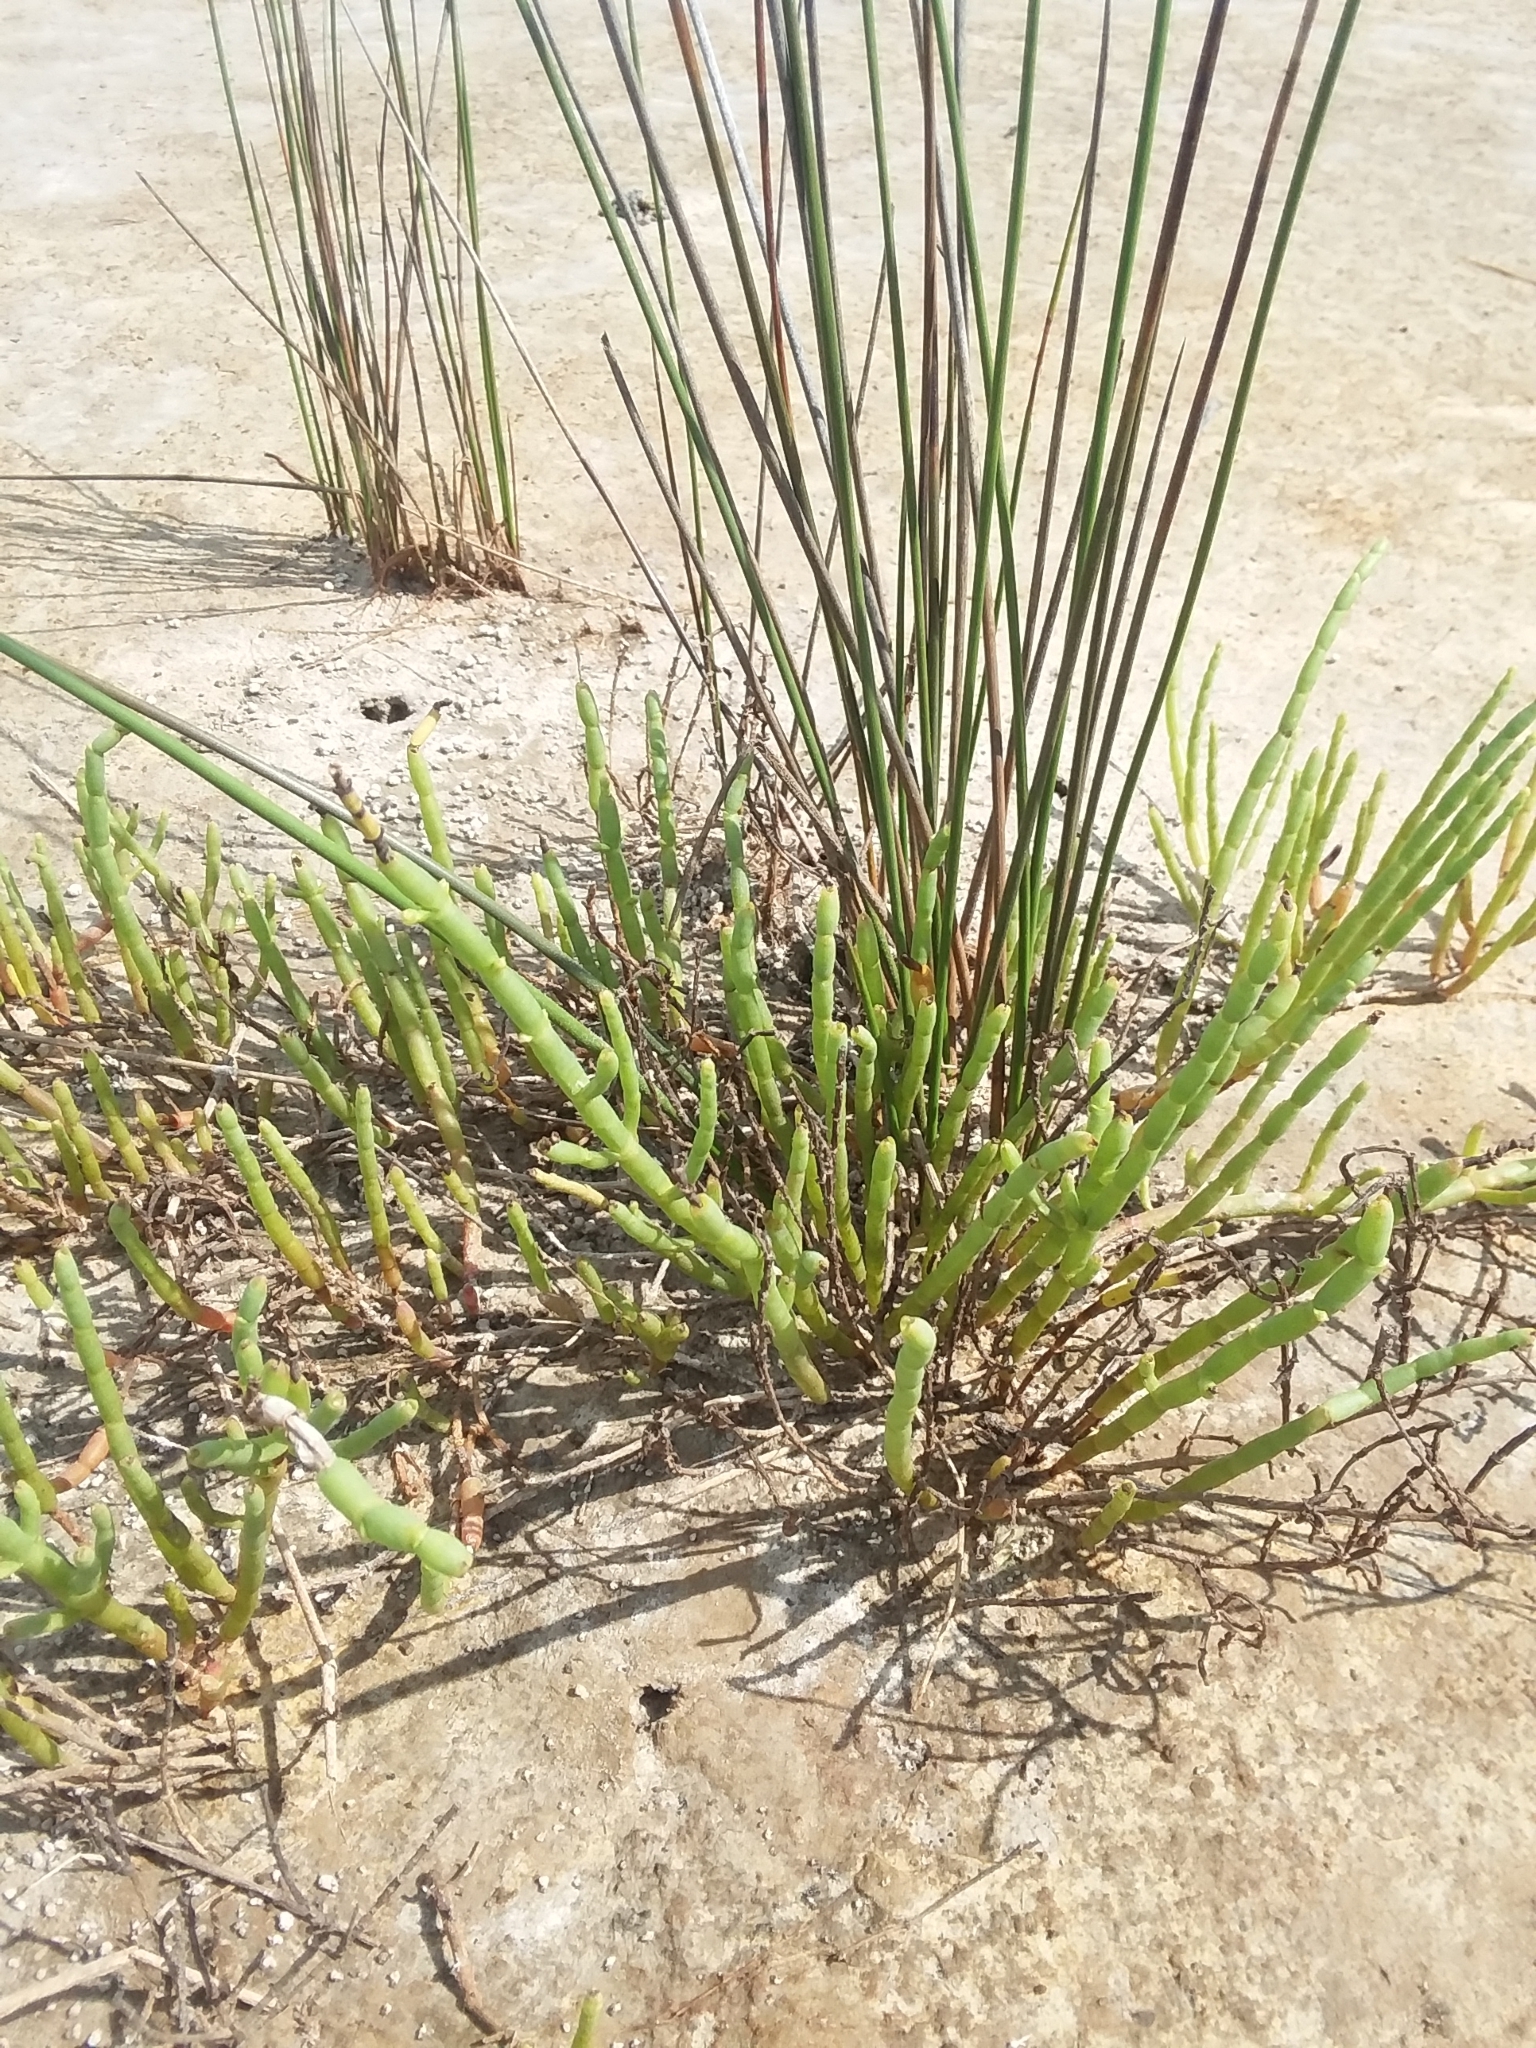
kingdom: Plantae
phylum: Tracheophyta
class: Magnoliopsida
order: Caryophyllales
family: Amaranthaceae
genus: Salicornia
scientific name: Salicornia ambigua
